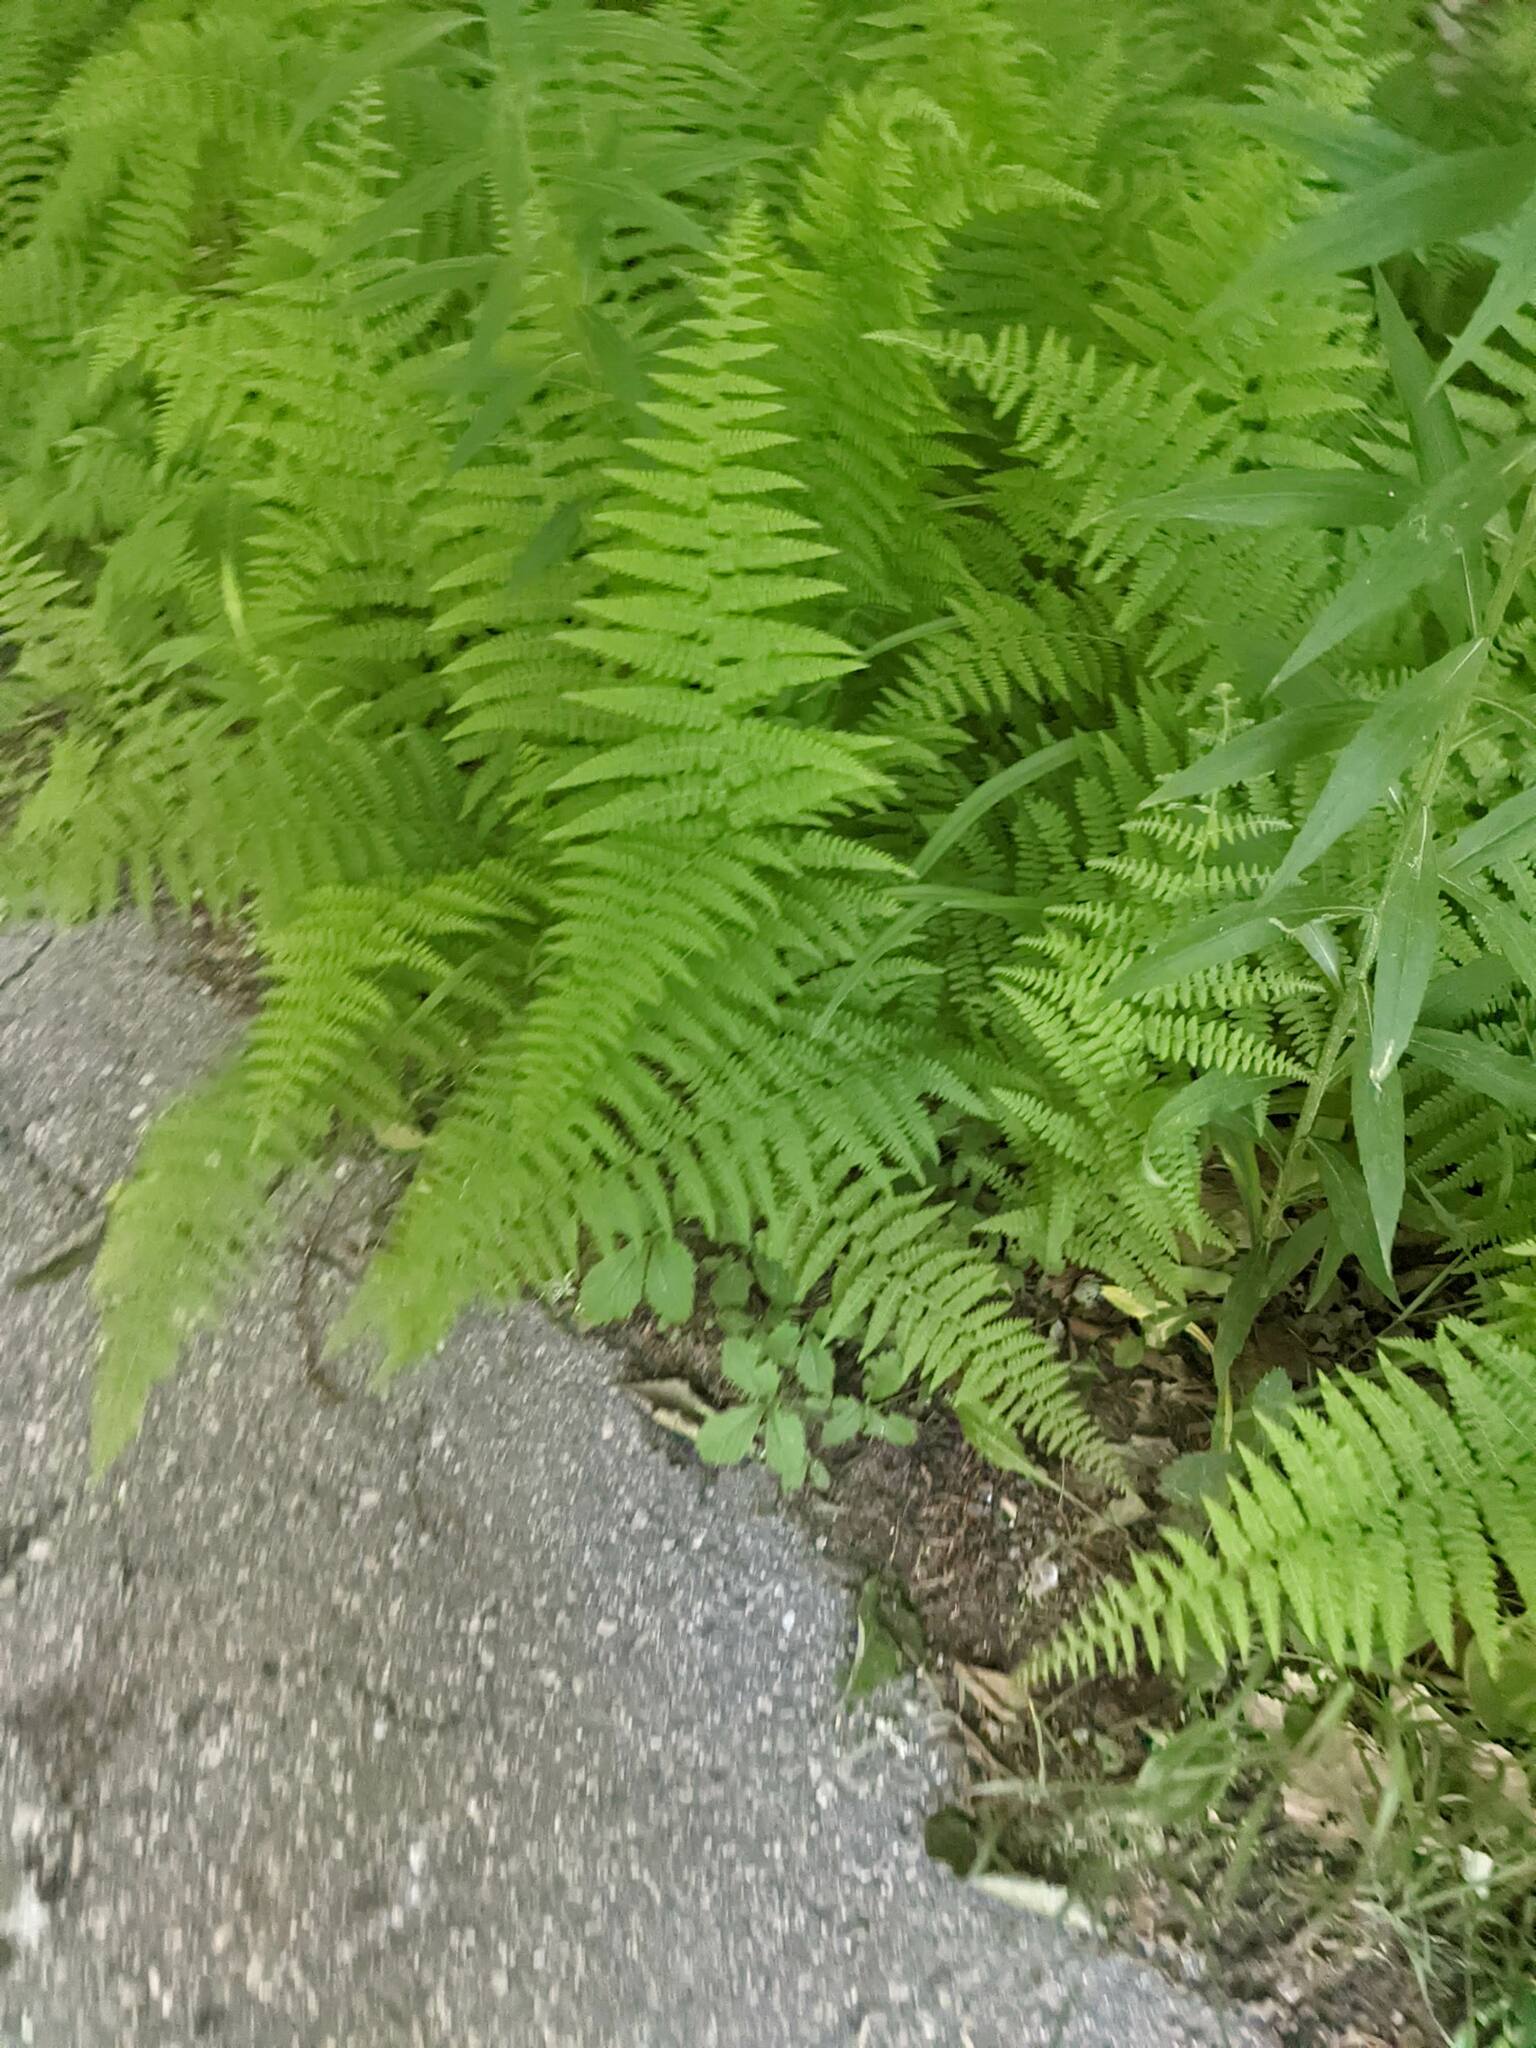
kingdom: Plantae
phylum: Tracheophyta
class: Polypodiopsida
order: Polypodiales
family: Dennstaedtiaceae
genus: Sitobolium
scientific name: Sitobolium punctilobum
